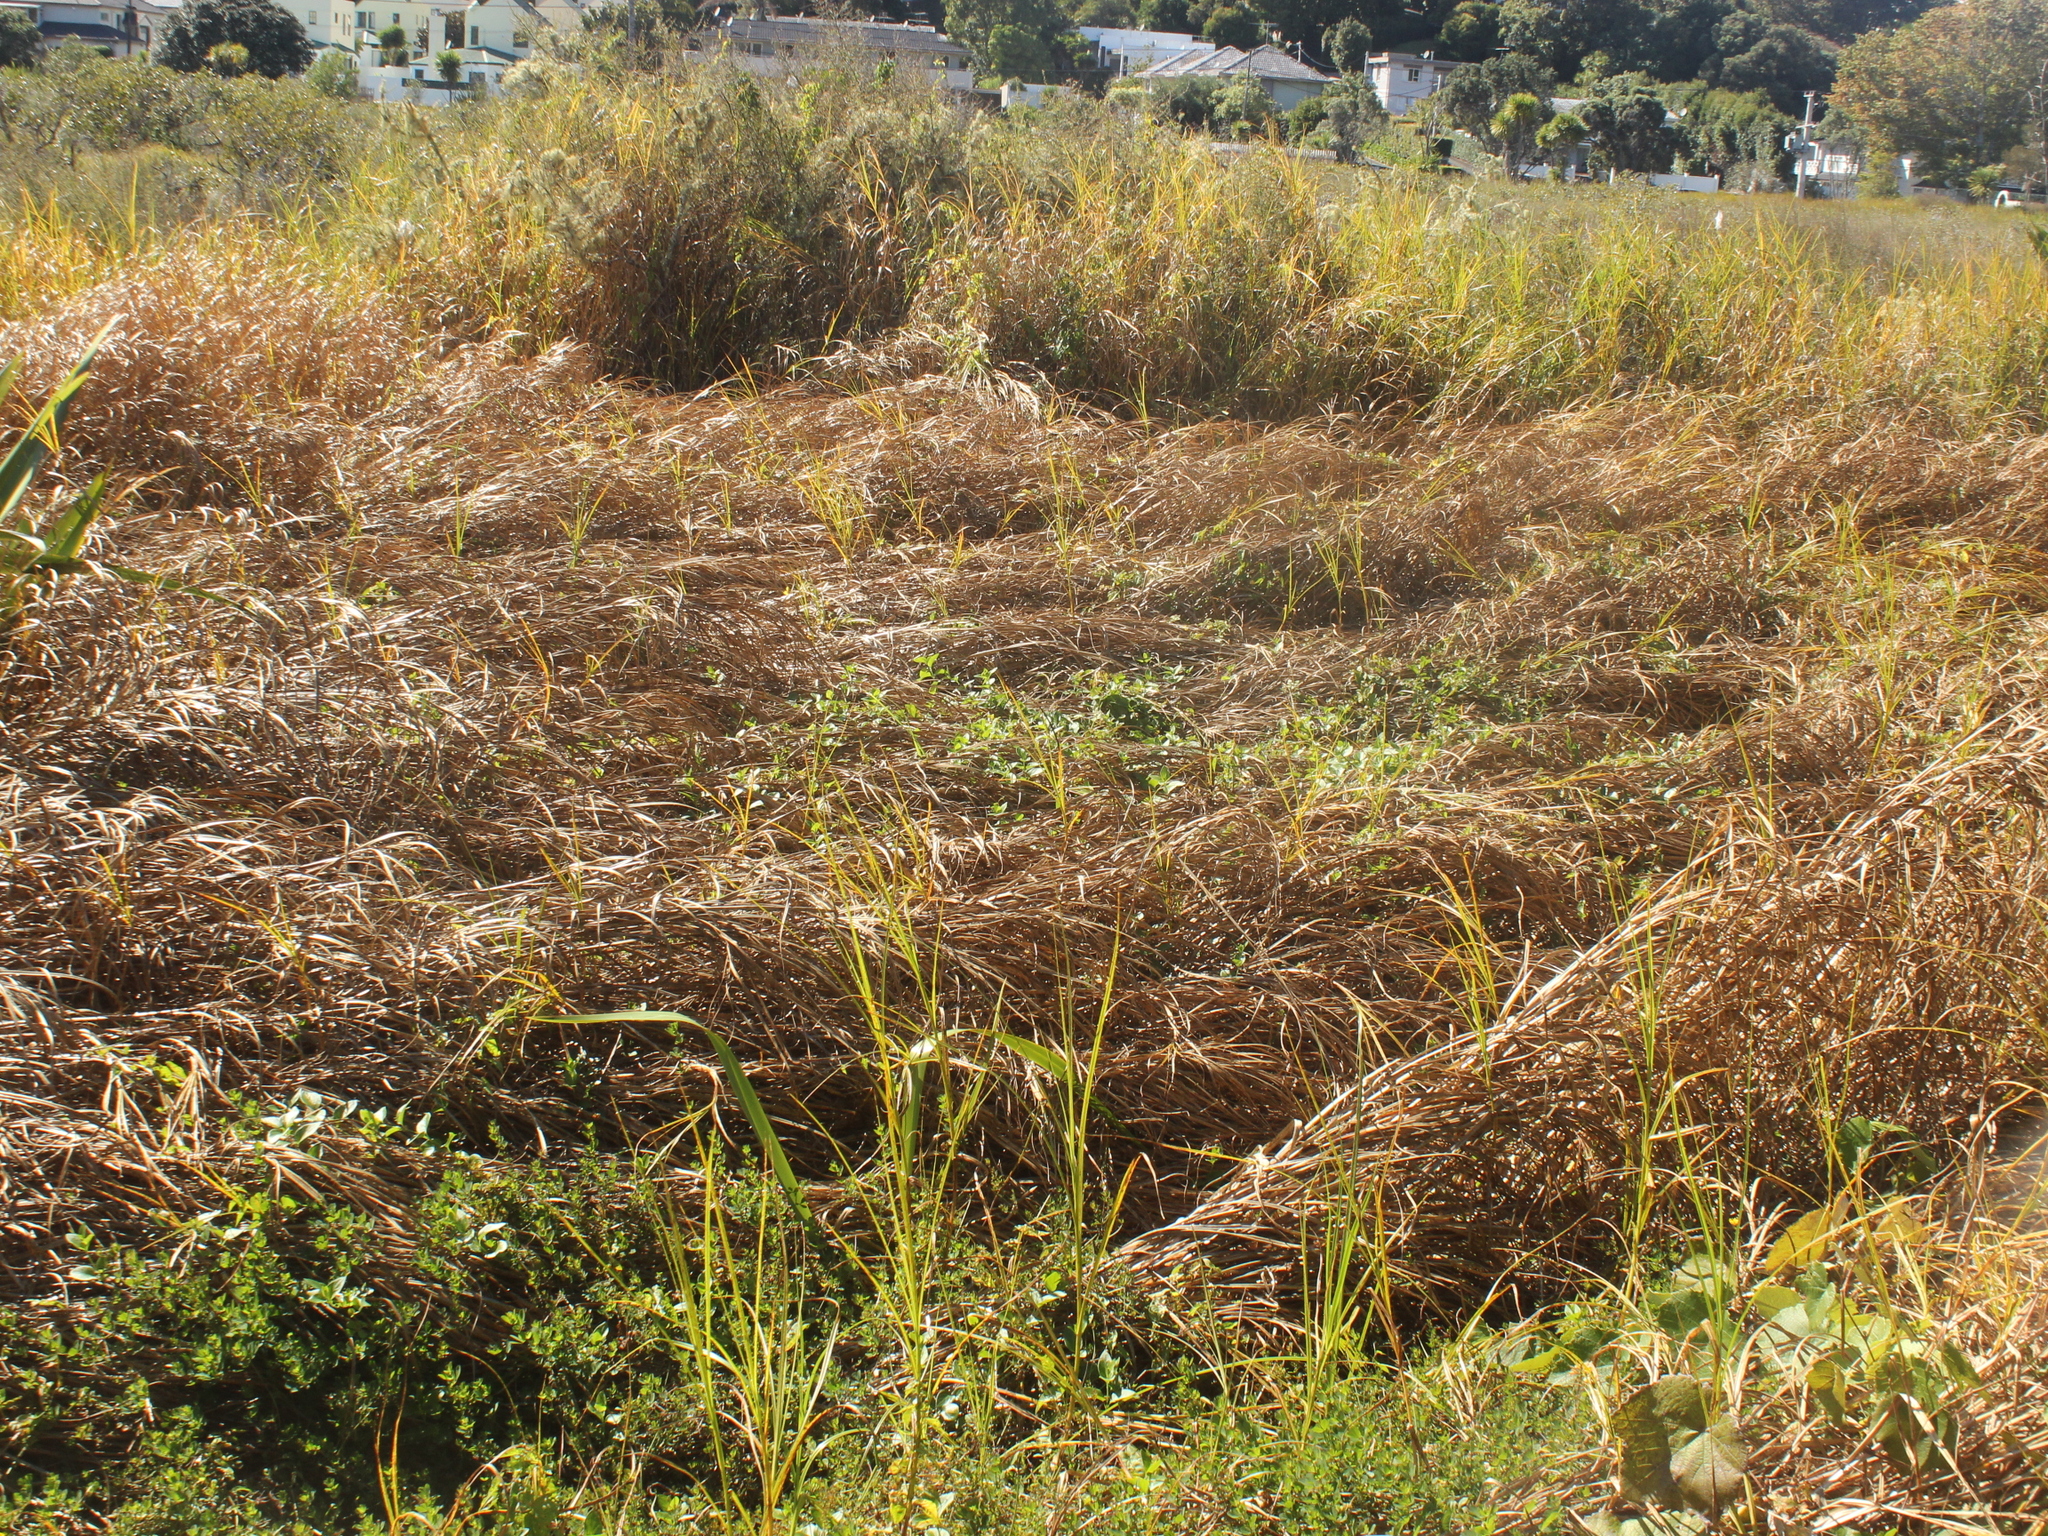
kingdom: Plantae
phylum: Tracheophyta
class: Liliopsida
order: Poales
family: Cyperaceae
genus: Bolboschoenus
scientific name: Bolboschoenus fluviatilis
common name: River bulrush
